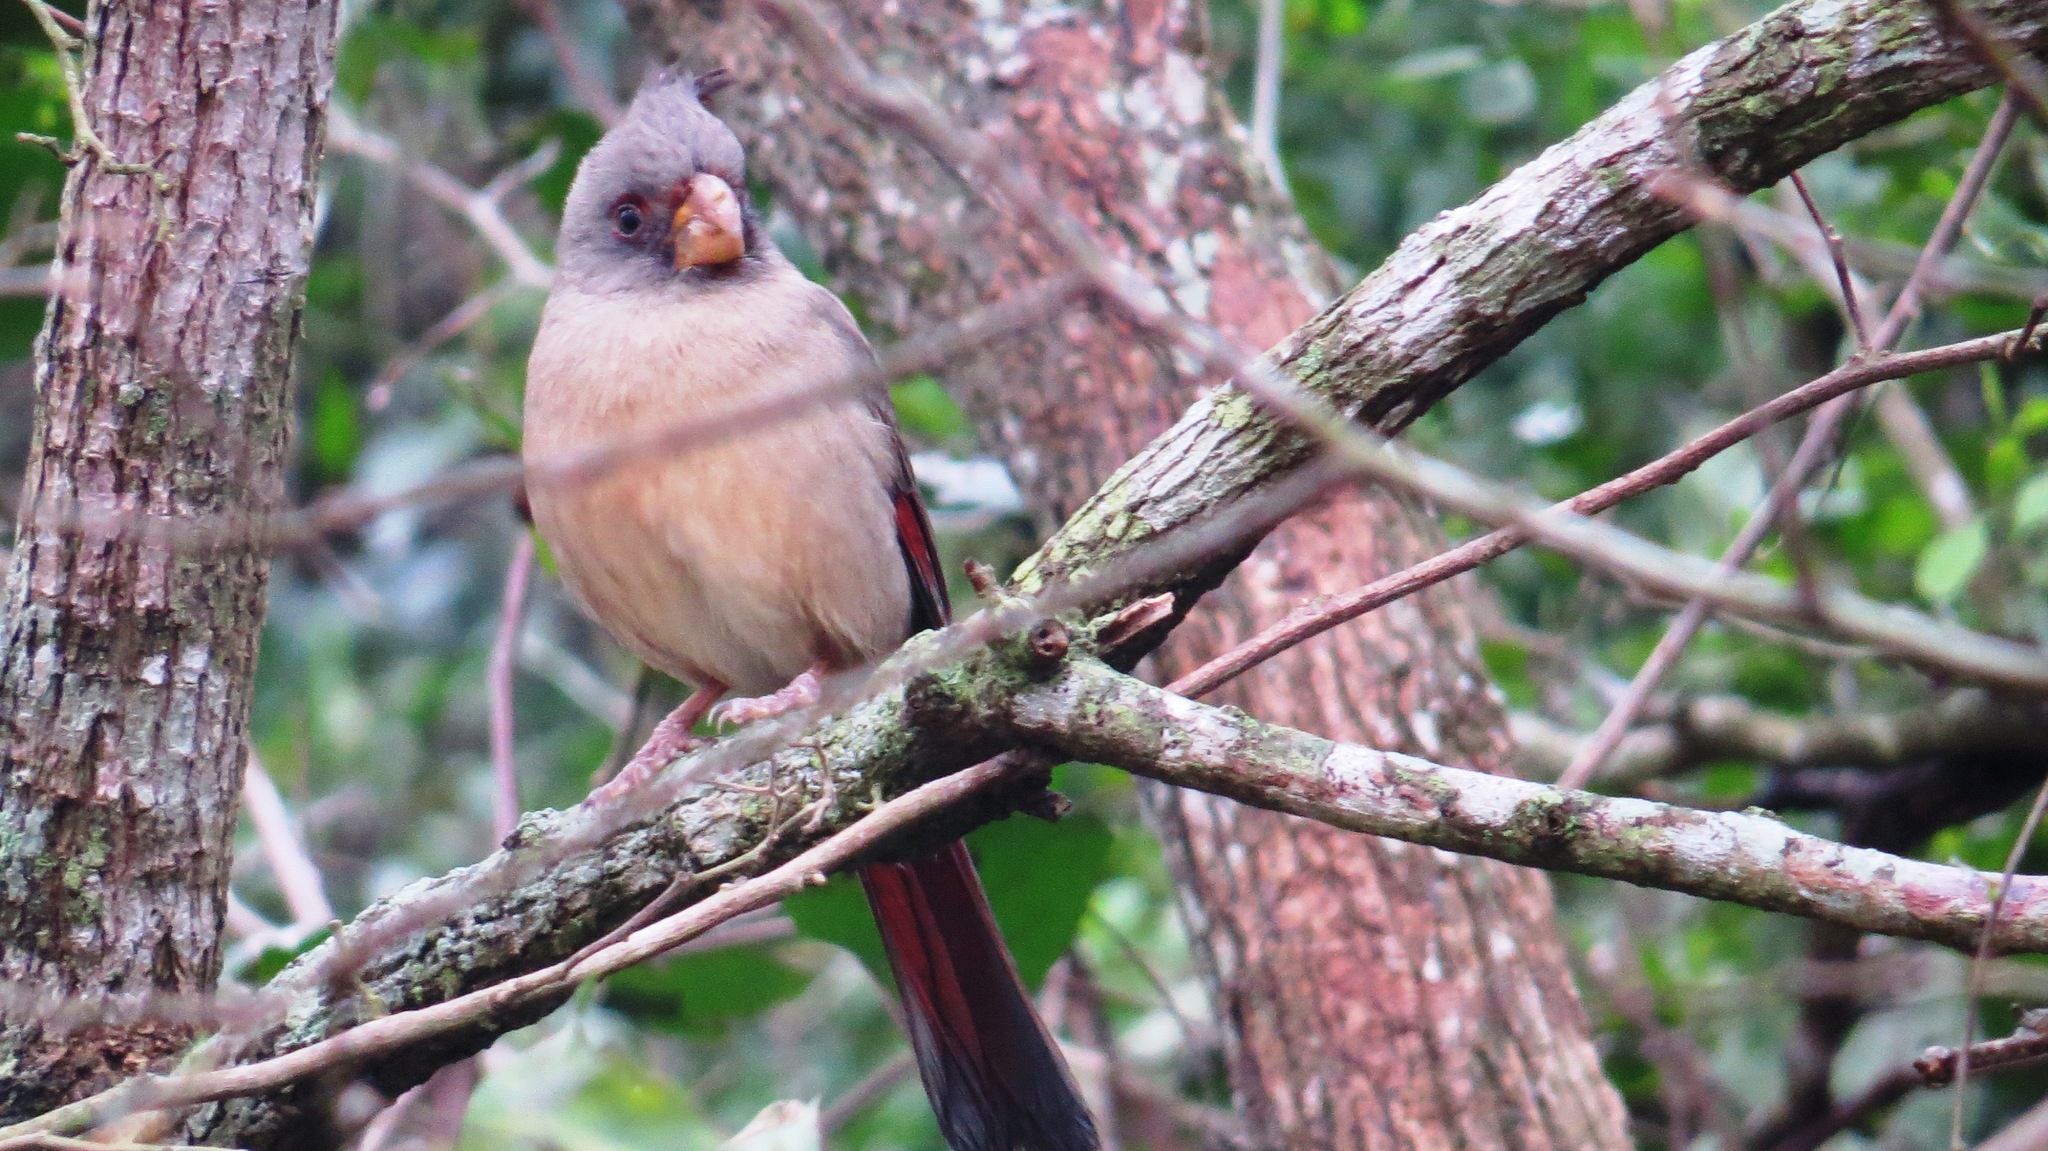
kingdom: Animalia
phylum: Chordata
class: Aves
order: Passeriformes
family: Cardinalidae
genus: Cardinalis
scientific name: Cardinalis sinuatus
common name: Pyrrhuloxia
